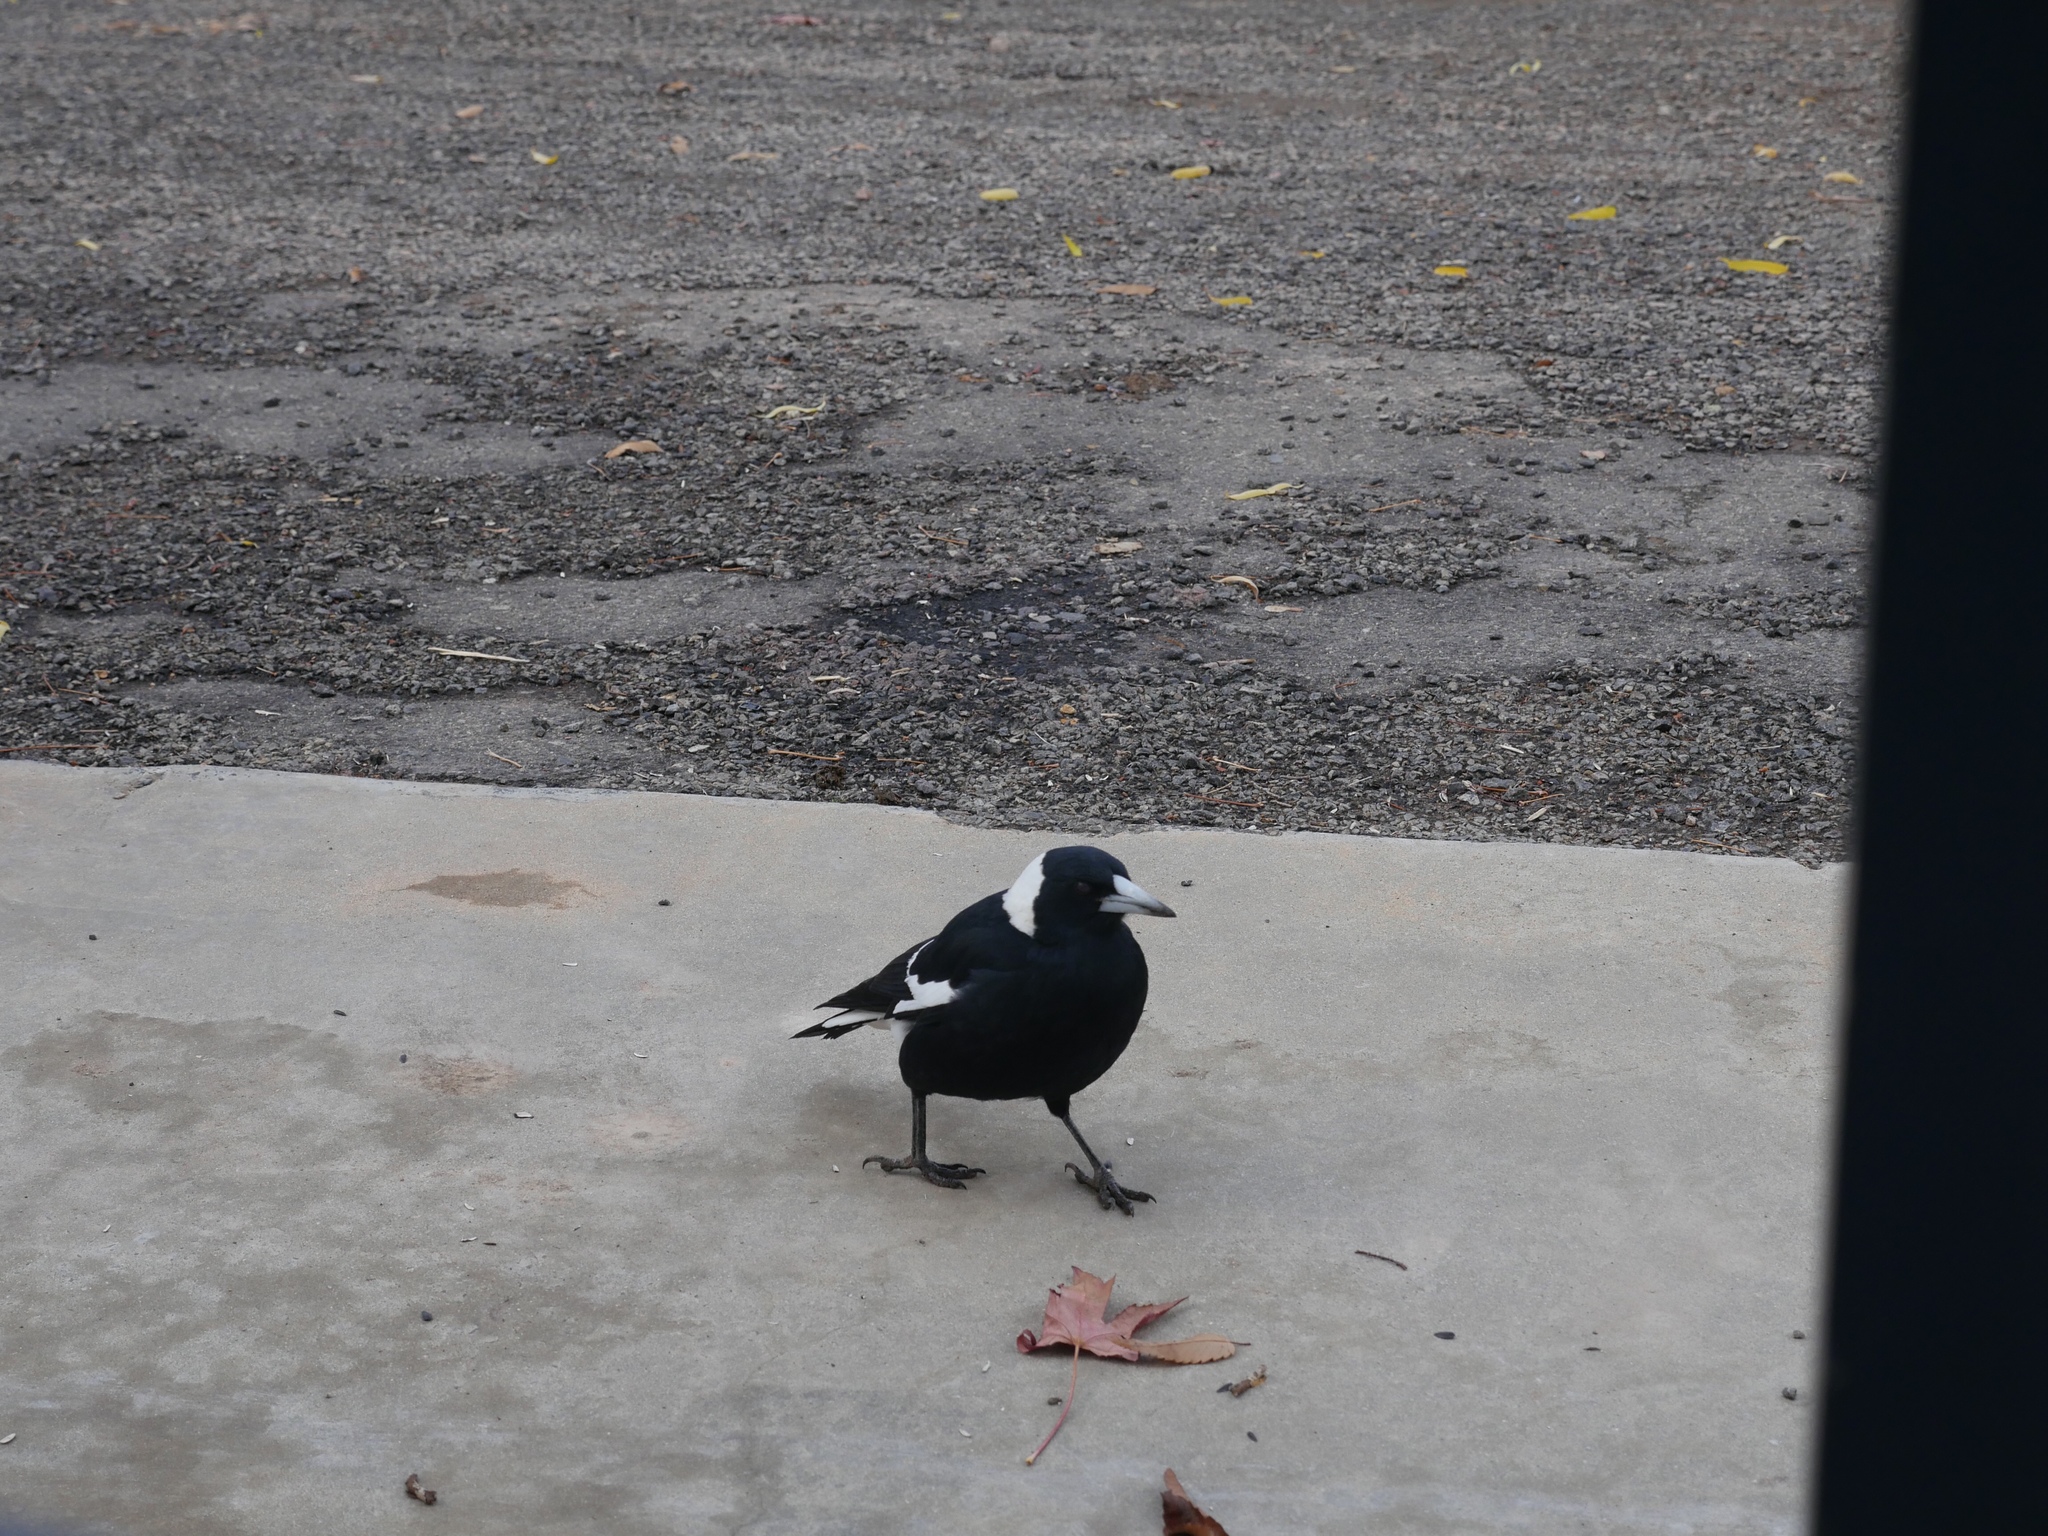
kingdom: Animalia
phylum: Chordata
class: Aves
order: Passeriformes
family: Cracticidae
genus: Gymnorhina
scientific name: Gymnorhina tibicen
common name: Australian magpie
